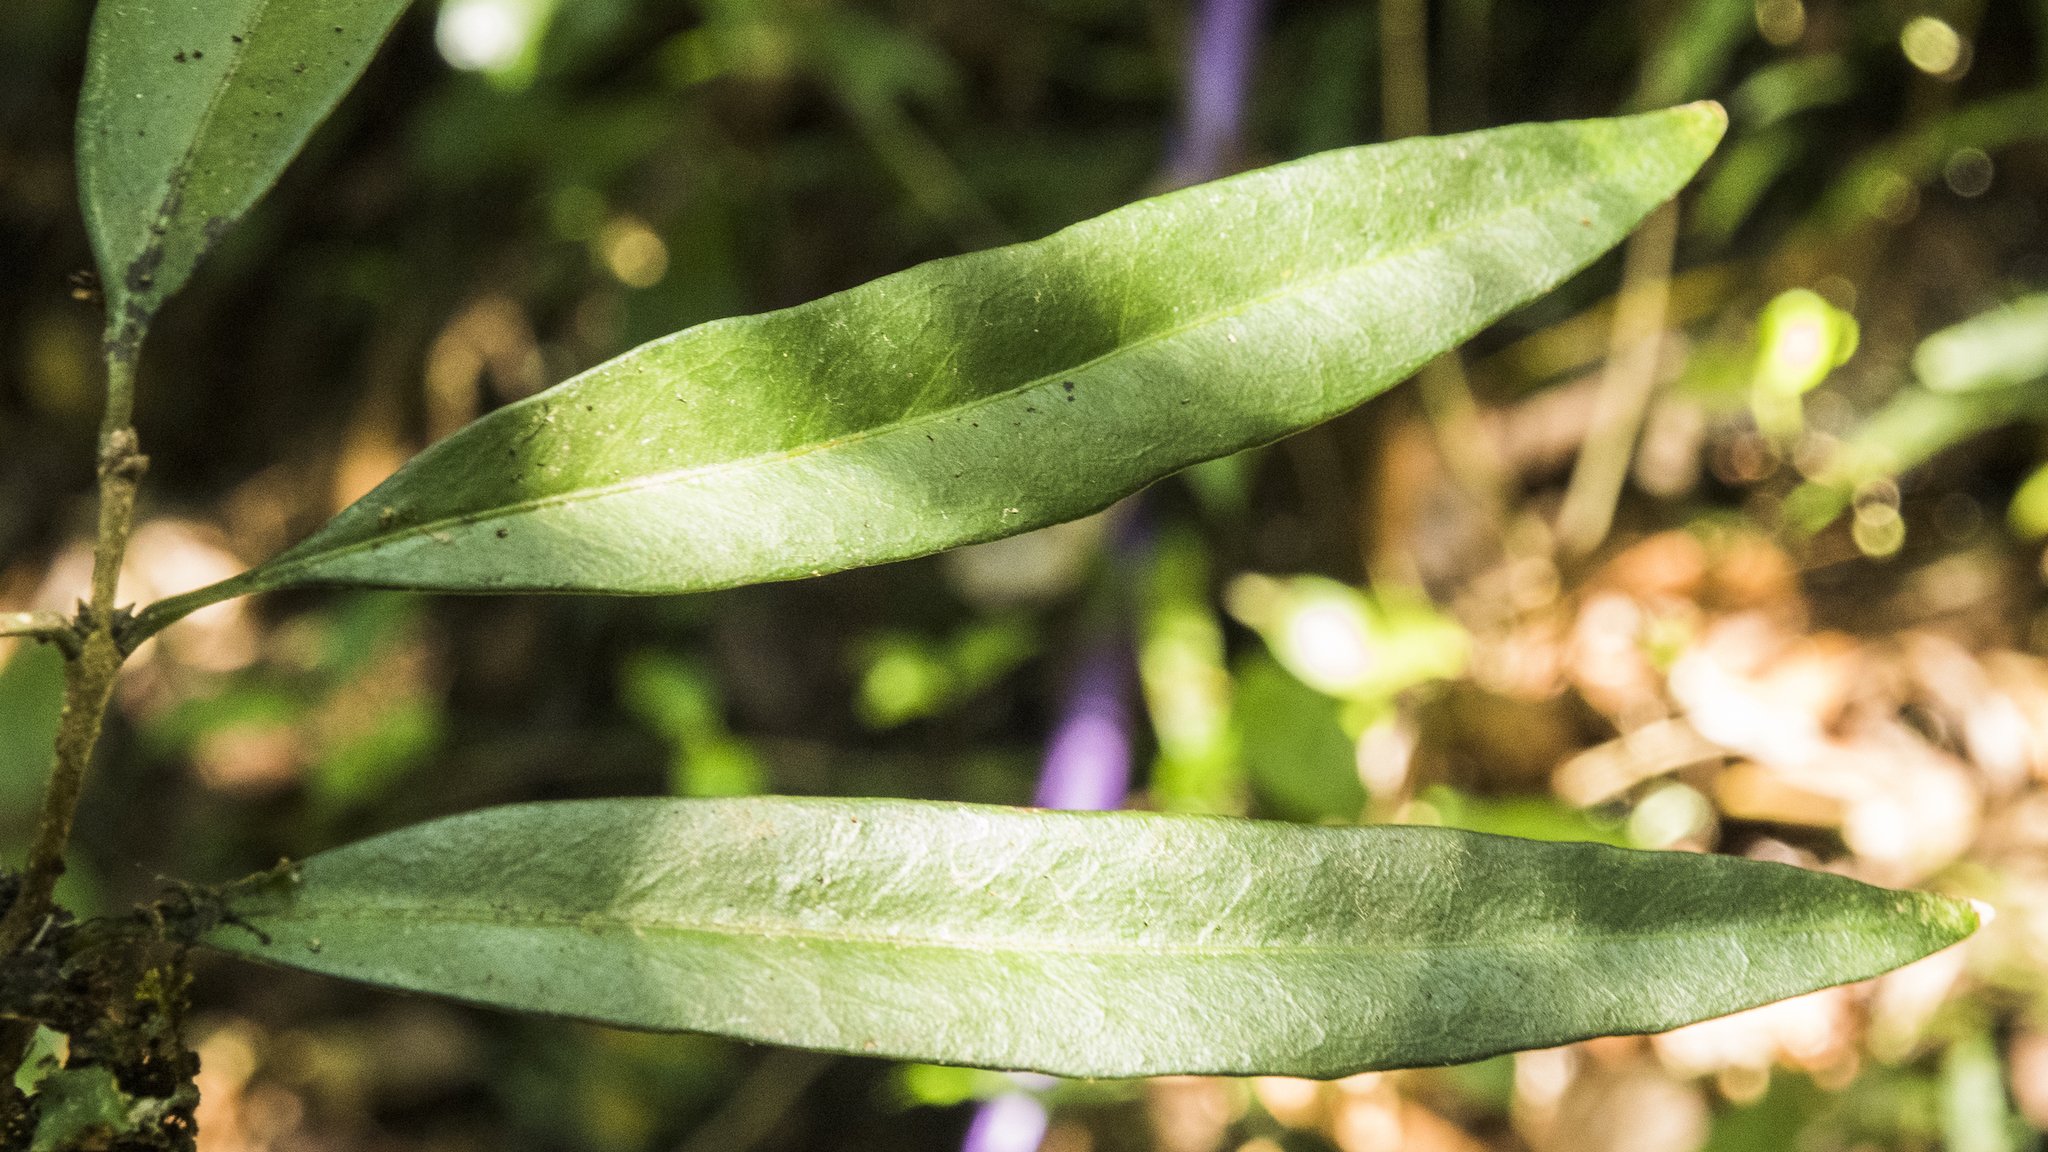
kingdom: Plantae
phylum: Tracheophyta
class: Magnoliopsida
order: Lamiales
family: Oleaceae
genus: Nestegis
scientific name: Nestegis lanceolata
